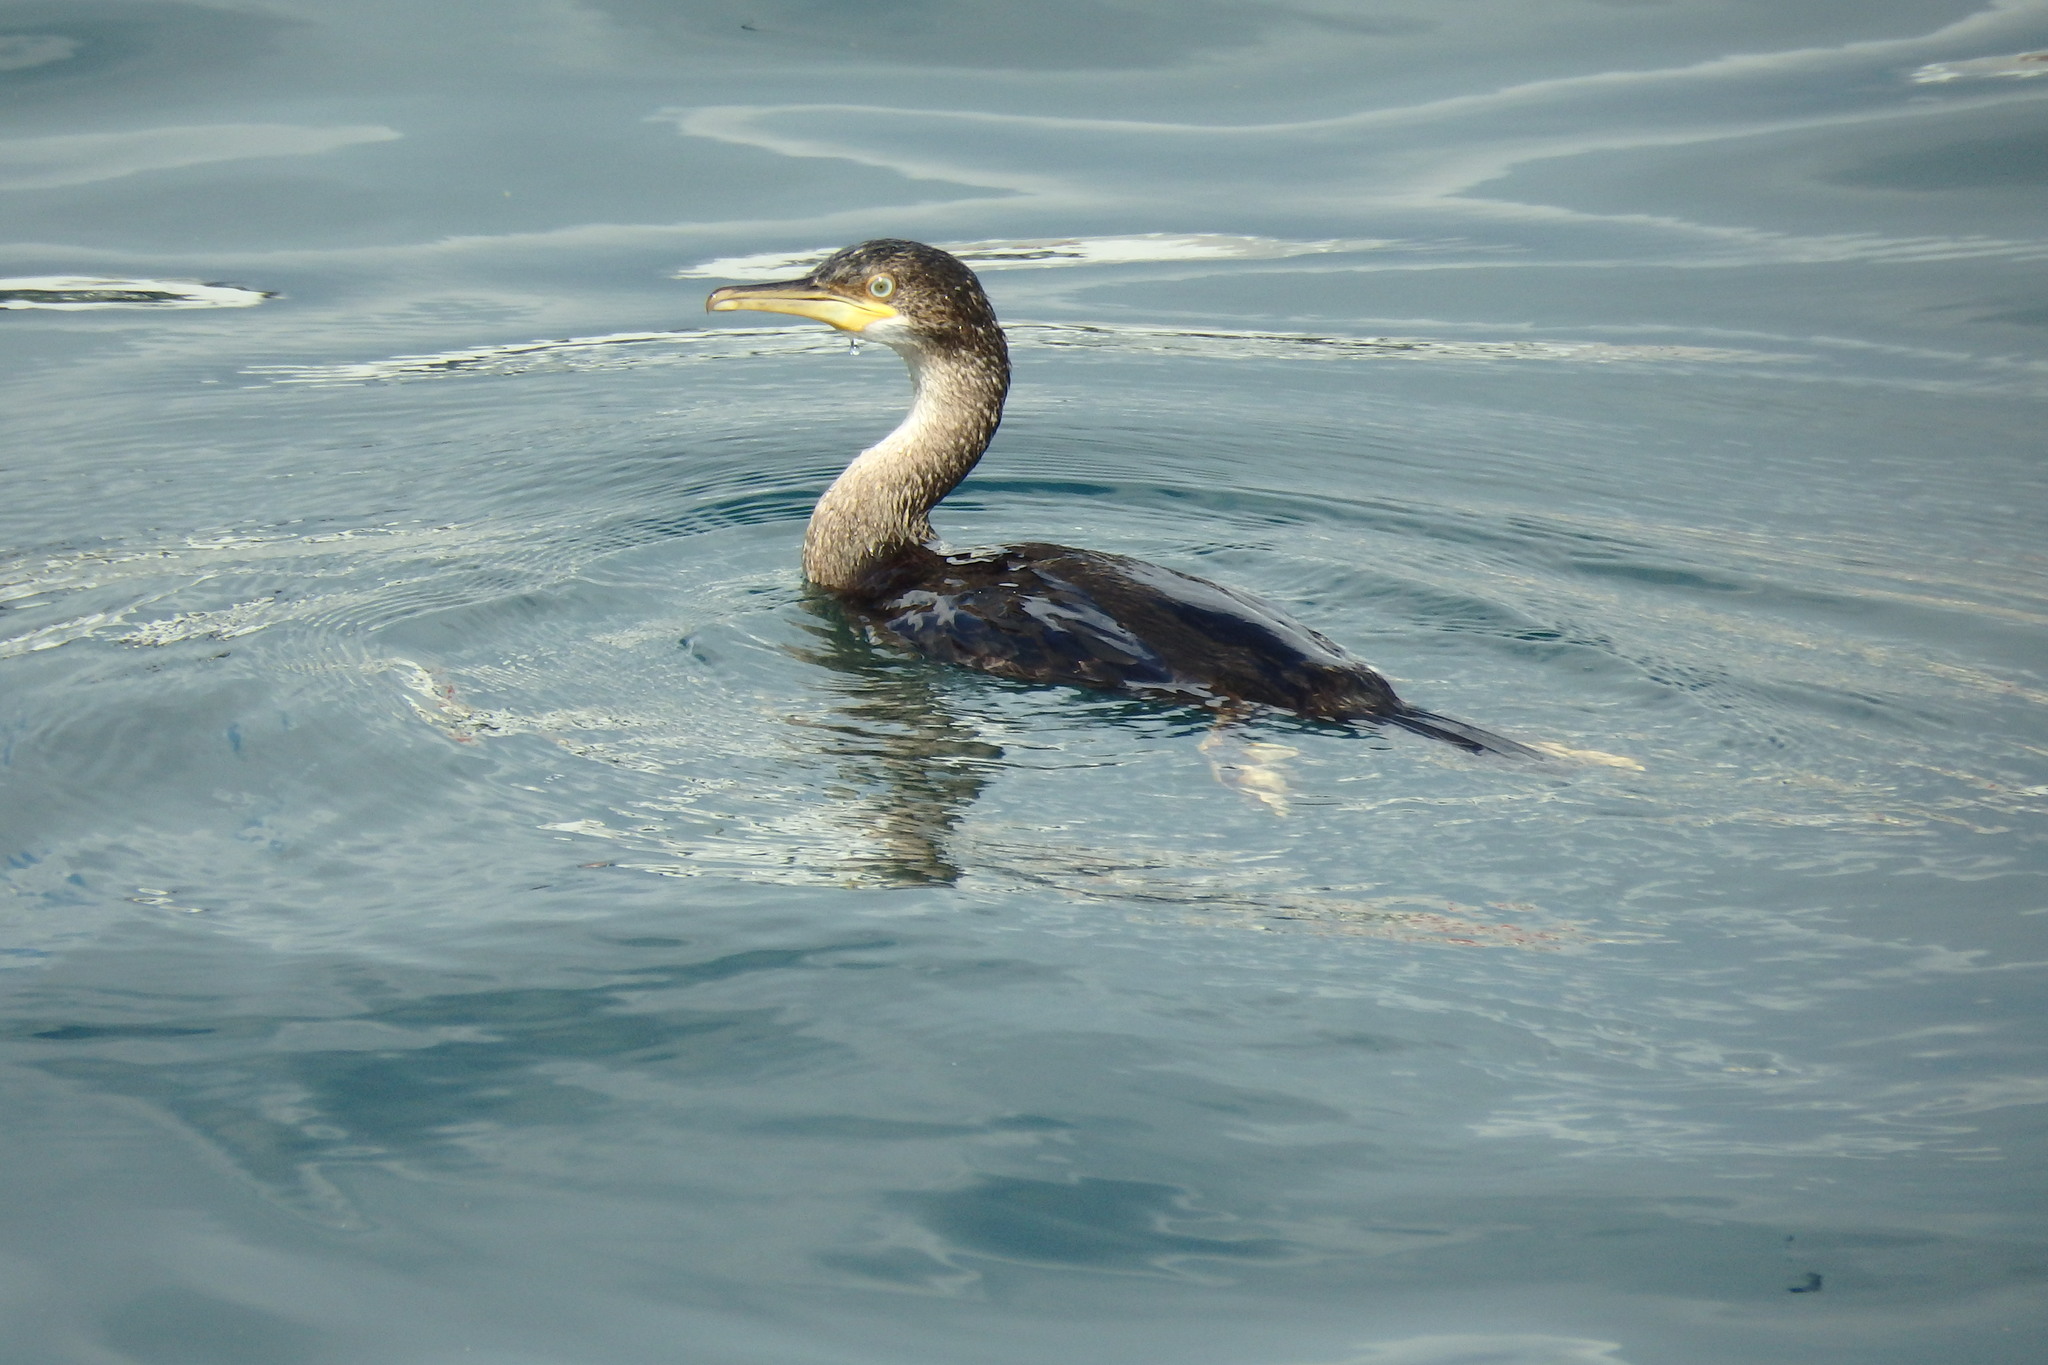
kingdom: Animalia
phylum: Chordata
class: Aves
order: Suliformes
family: Phalacrocoracidae
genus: Phalacrocorax
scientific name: Phalacrocorax aristotelis
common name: European shag
